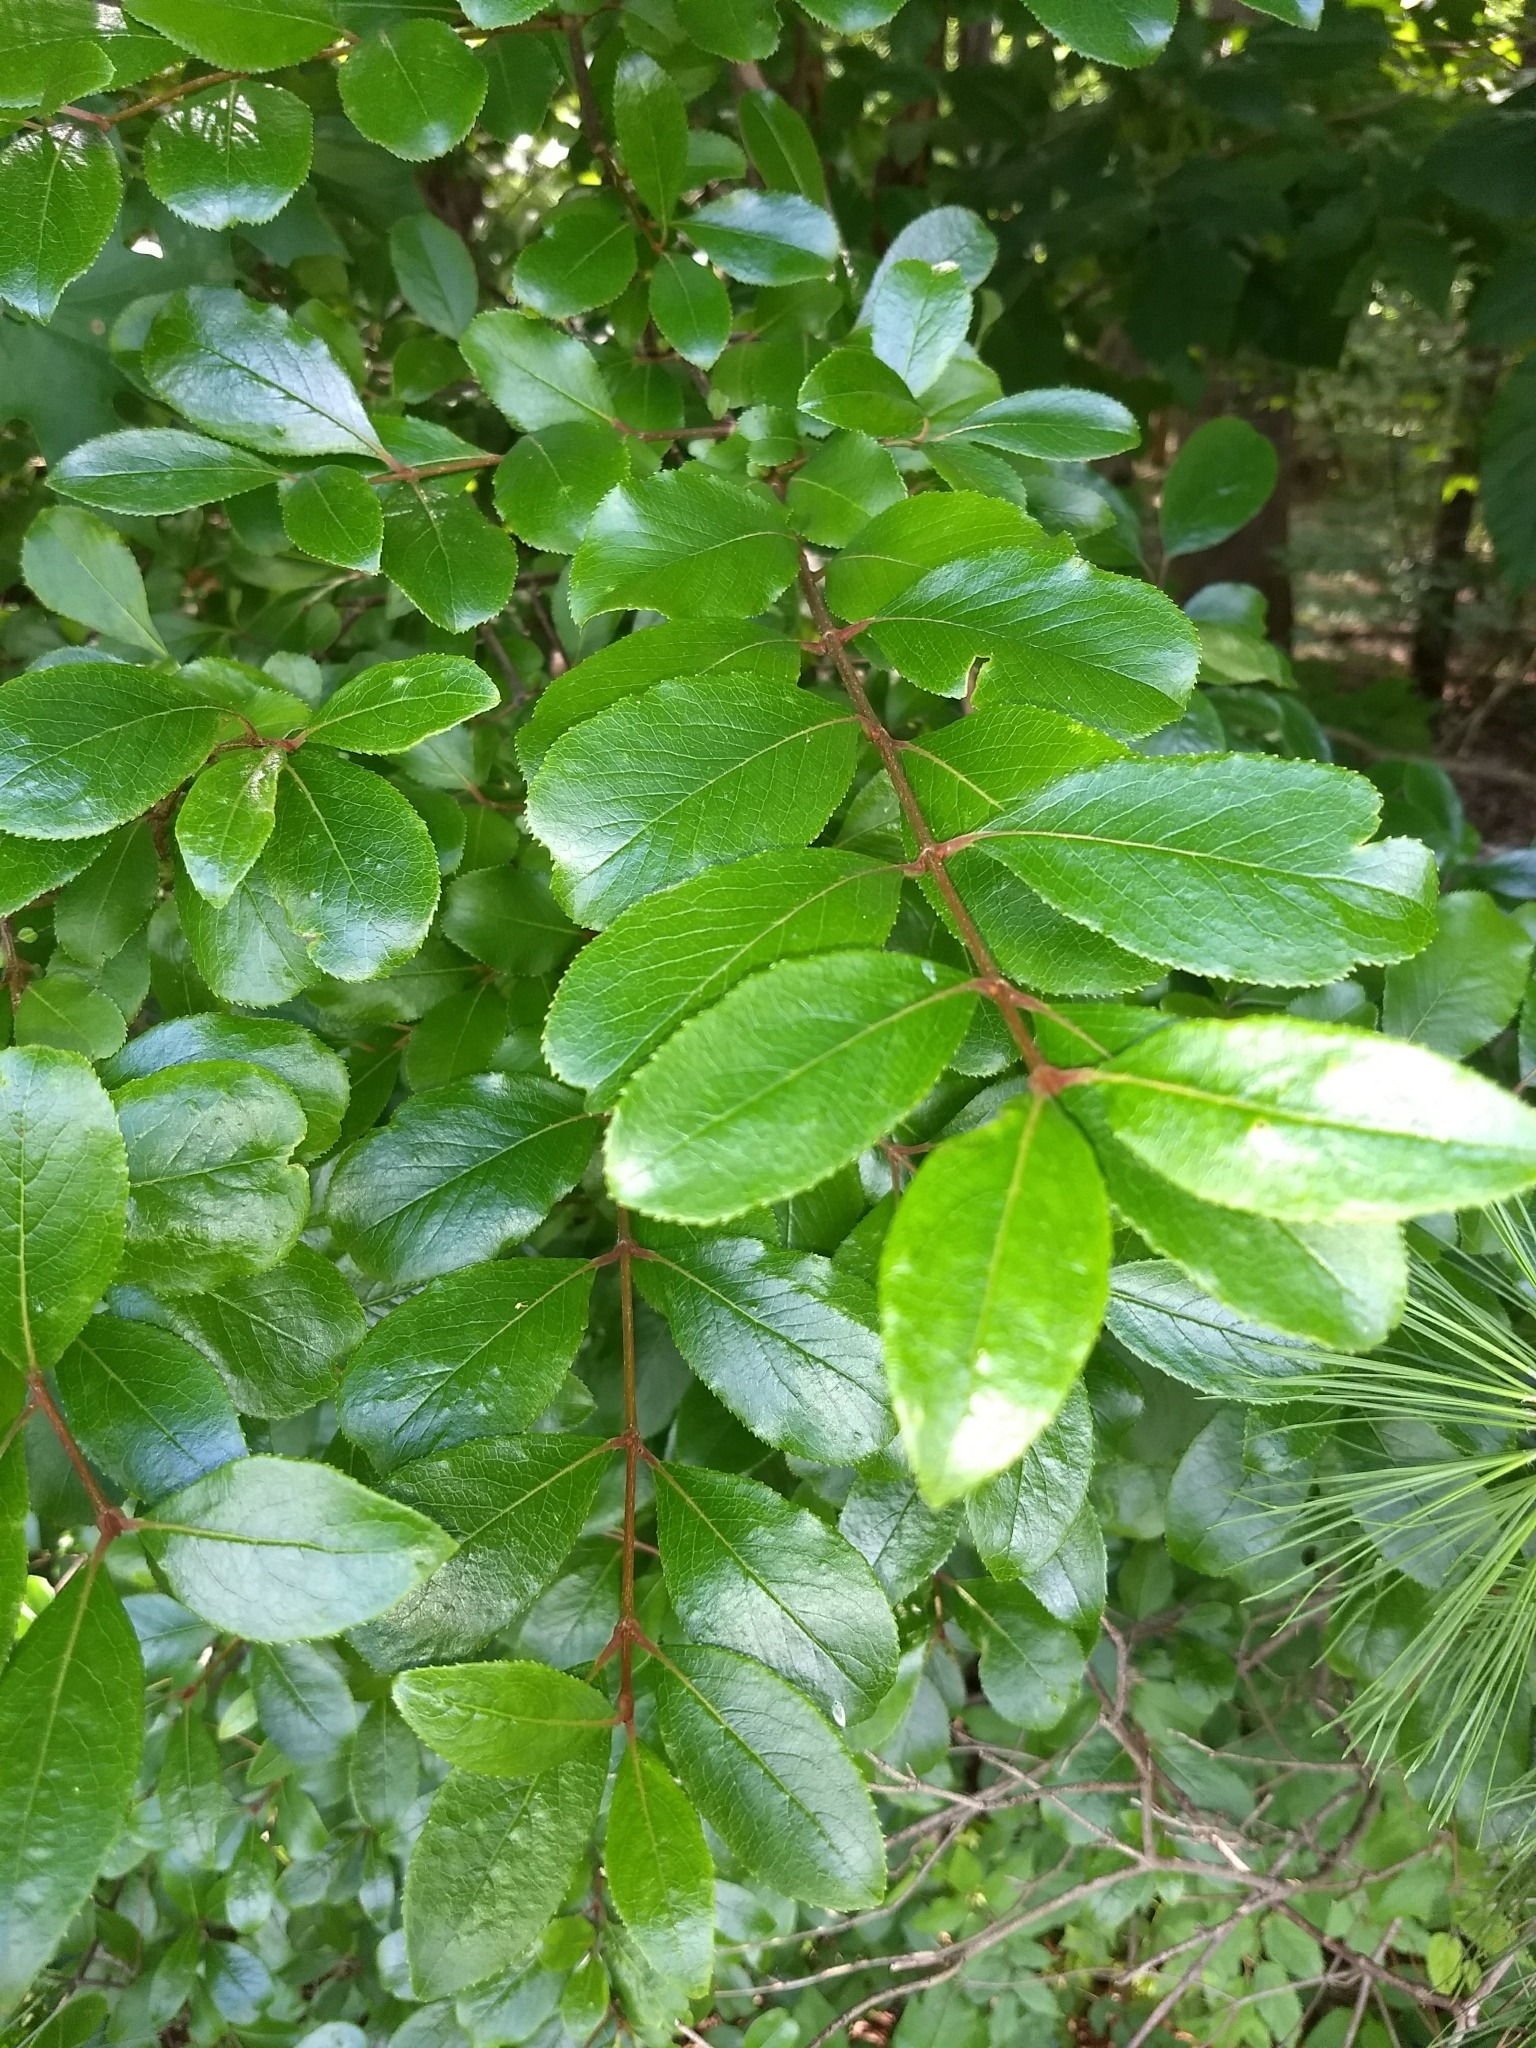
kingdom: Plantae
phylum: Tracheophyta
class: Magnoliopsida
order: Dipsacales
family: Viburnaceae
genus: Viburnum
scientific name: Viburnum rufidulum
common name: Blue haw
